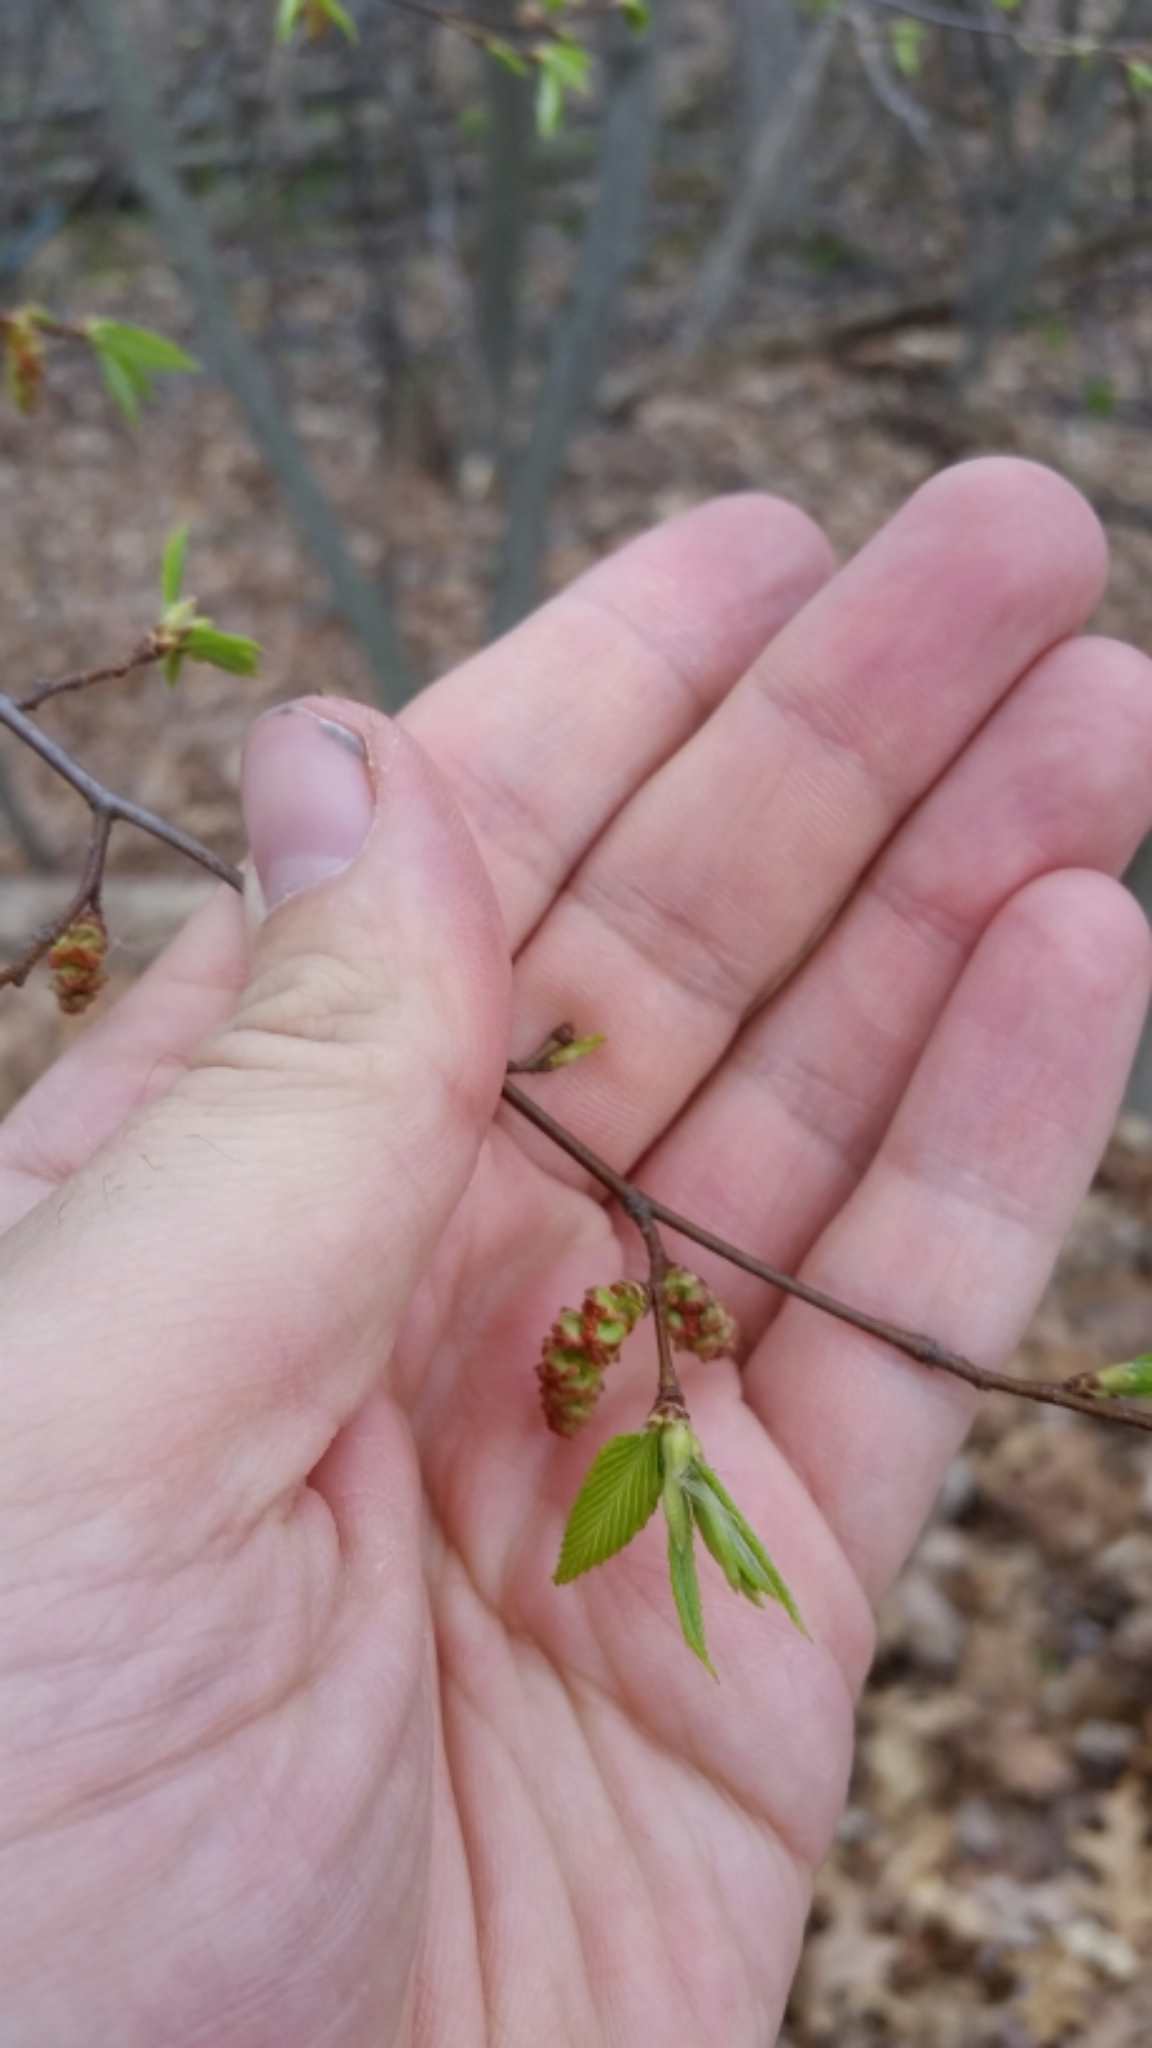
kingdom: Plantae
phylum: Tracheophyta
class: Magnoliopsida
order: Fagales
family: Betulaceae
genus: Carpinus
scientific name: Carpinus caroliniana
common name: American hornbeam
